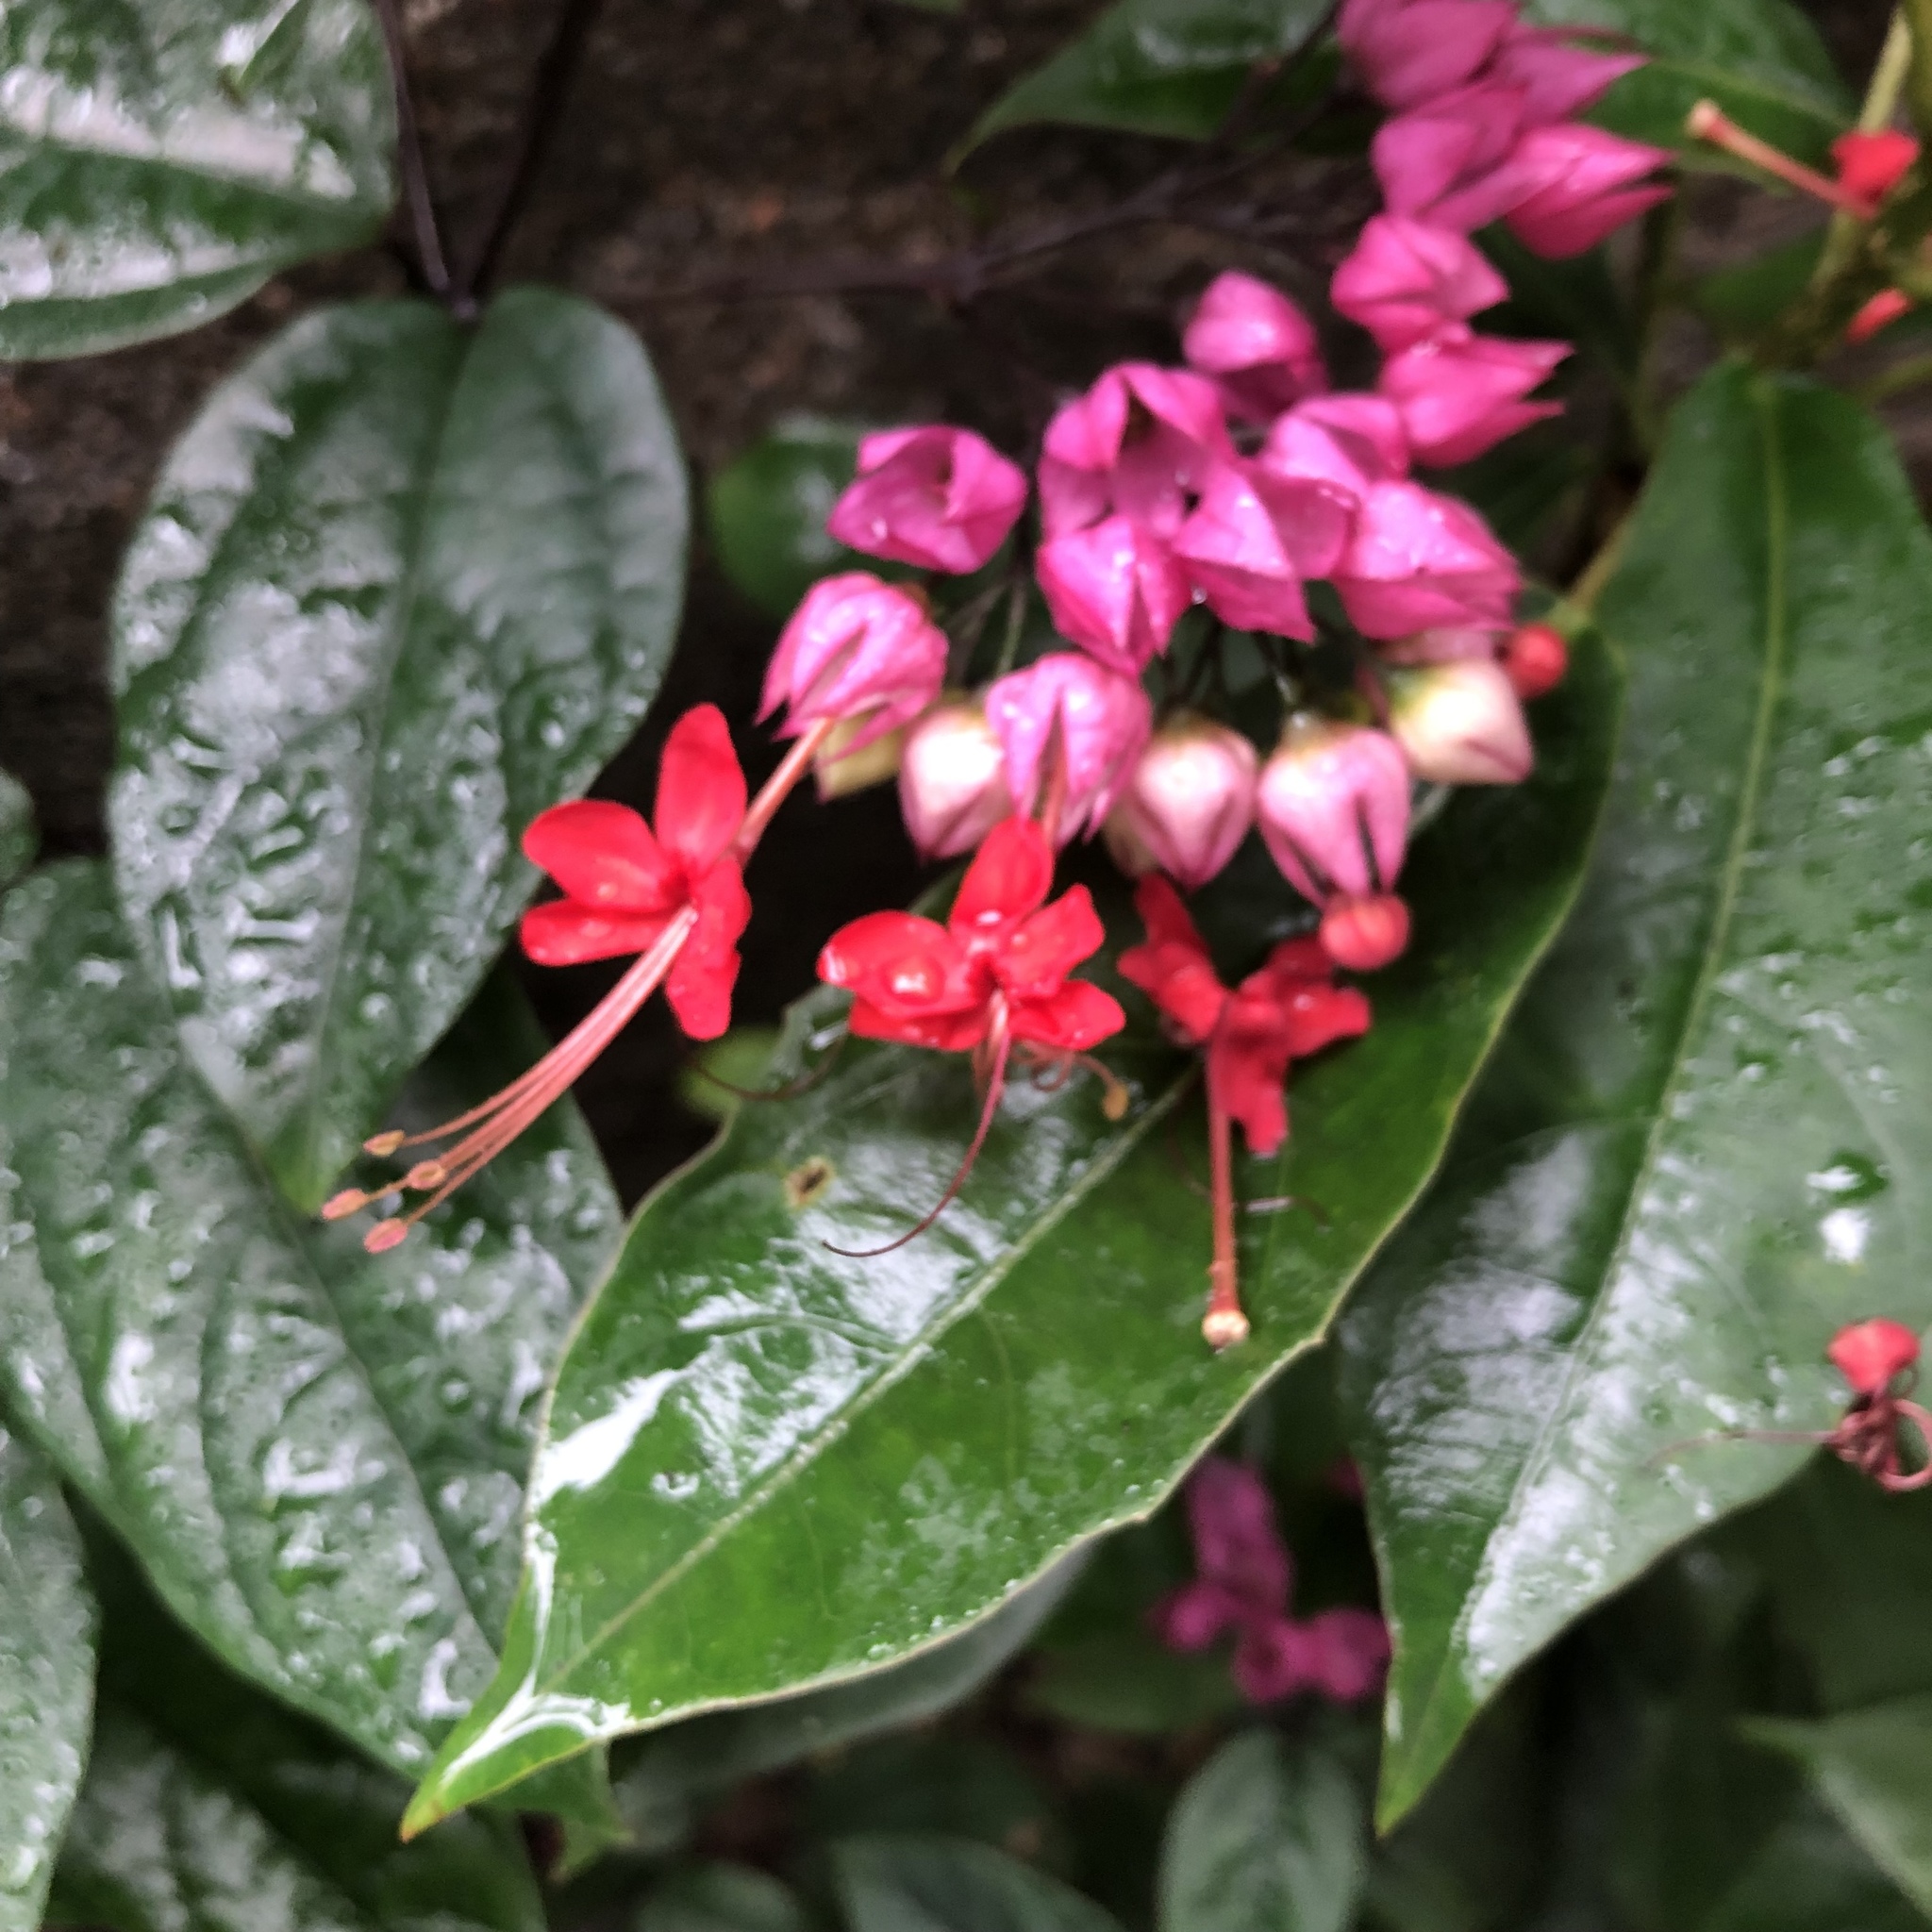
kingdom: Plantae
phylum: Tracheophyta
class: Magnoliopsida
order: Lamiales
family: Lamiaceae
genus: Clerodendrum
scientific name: Clerodendrum speciosum
